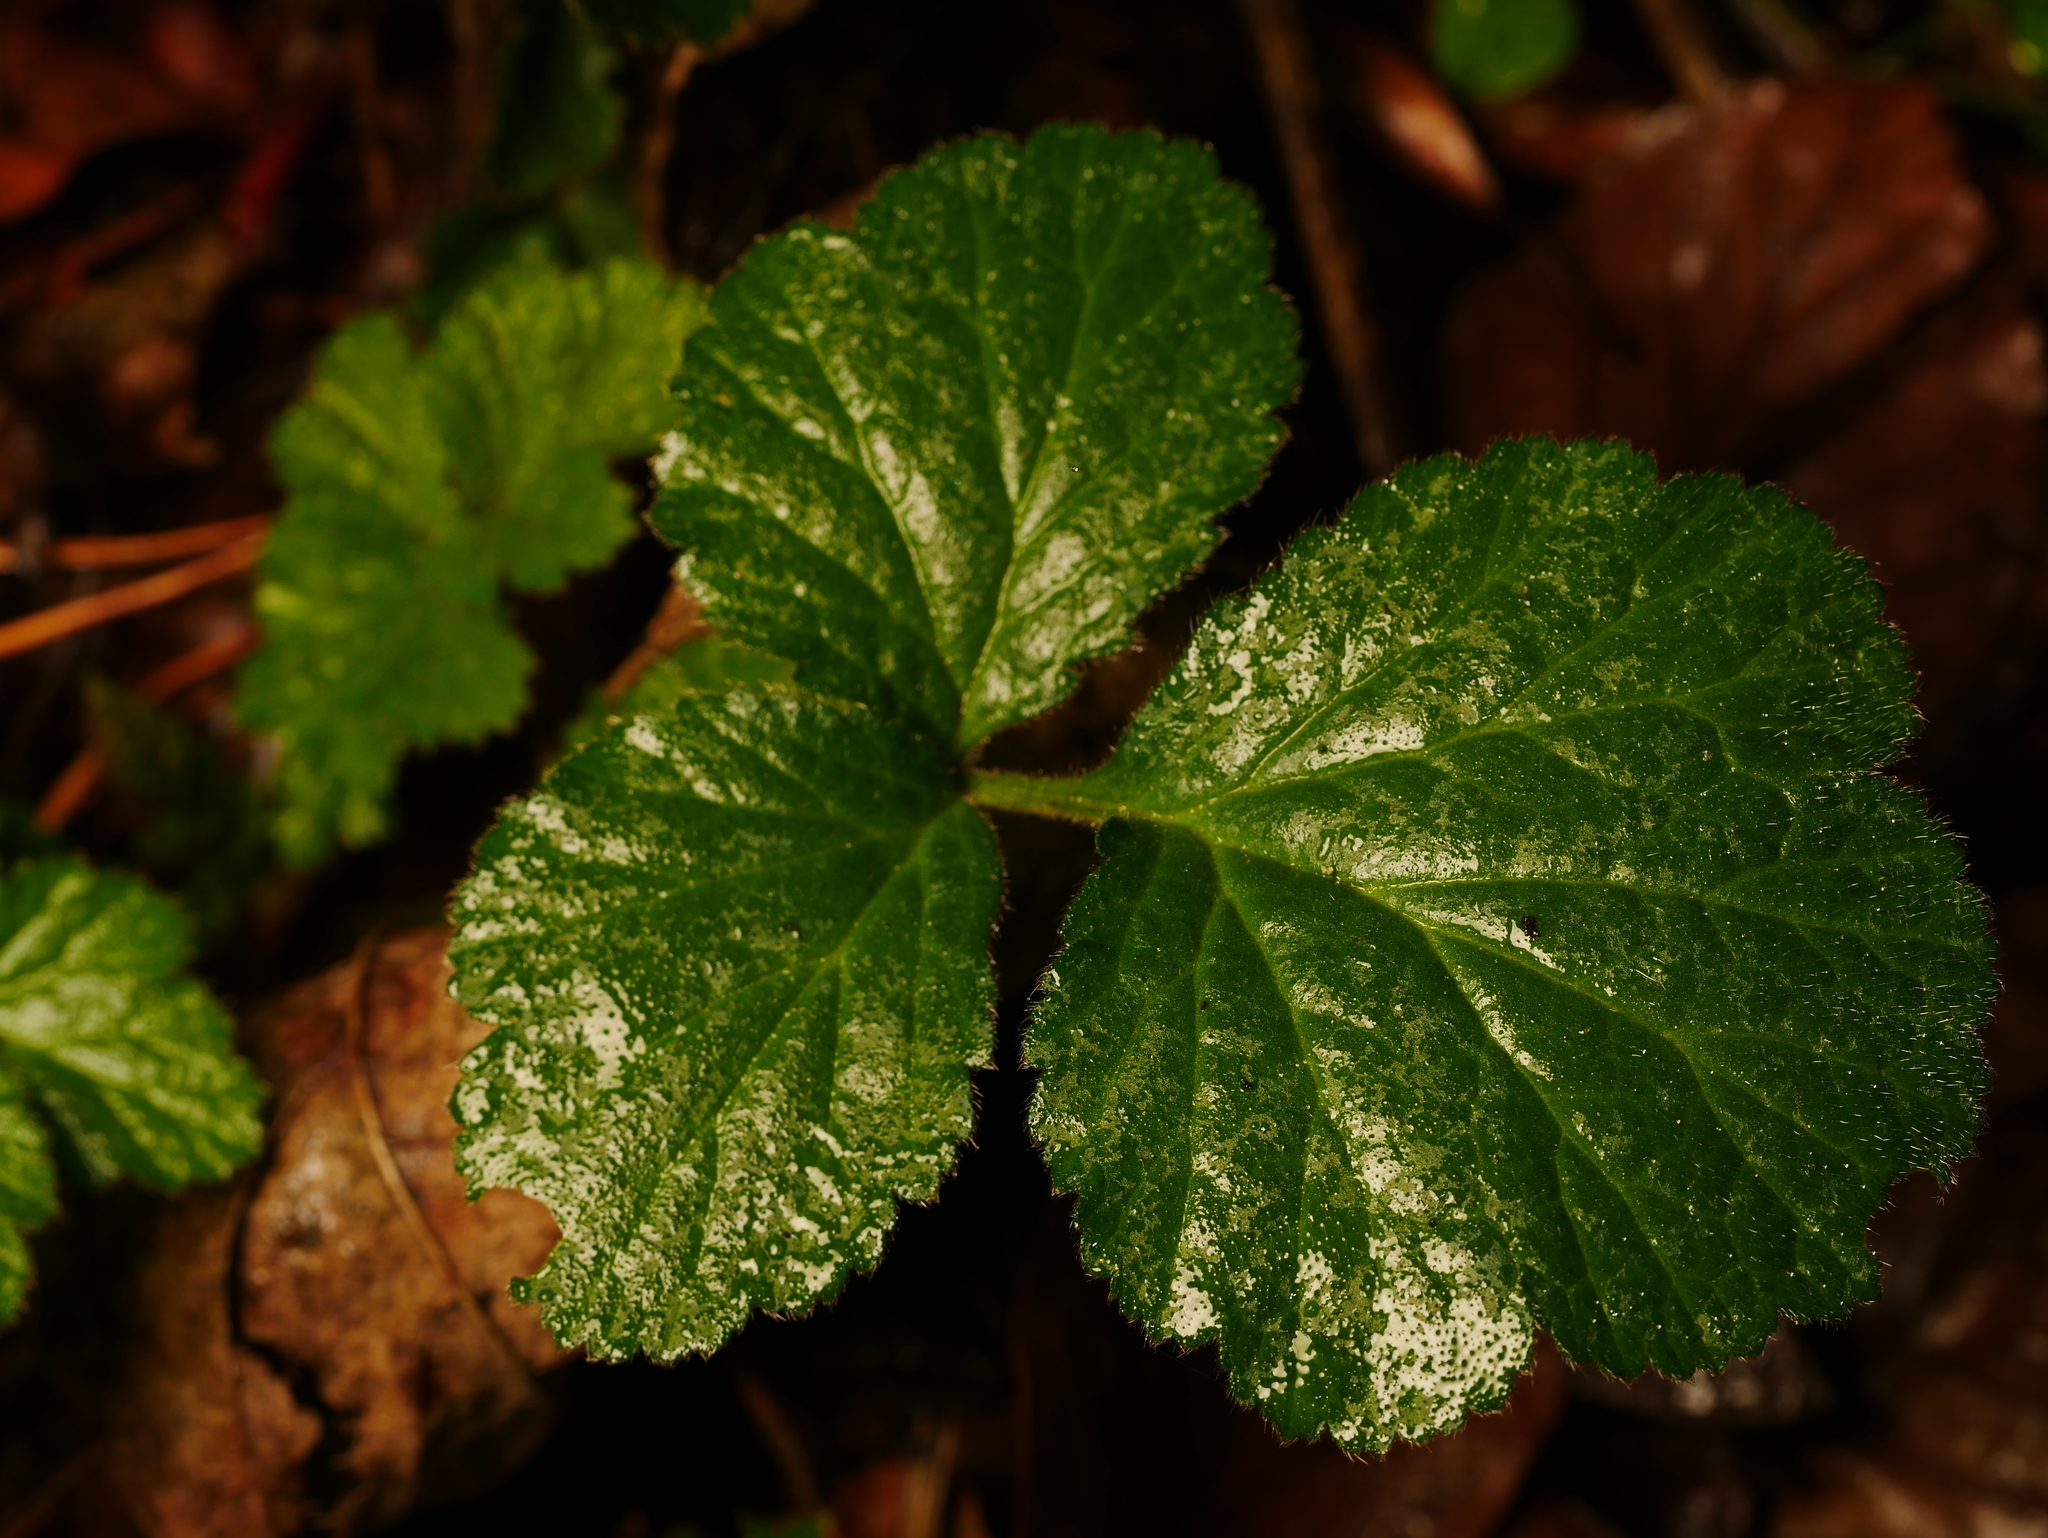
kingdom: Plantae
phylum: Tracheophyta
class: Magnoliopsida
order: Rosales
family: Rosaceae
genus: Geum
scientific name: Geum urbanum
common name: Wood avens
